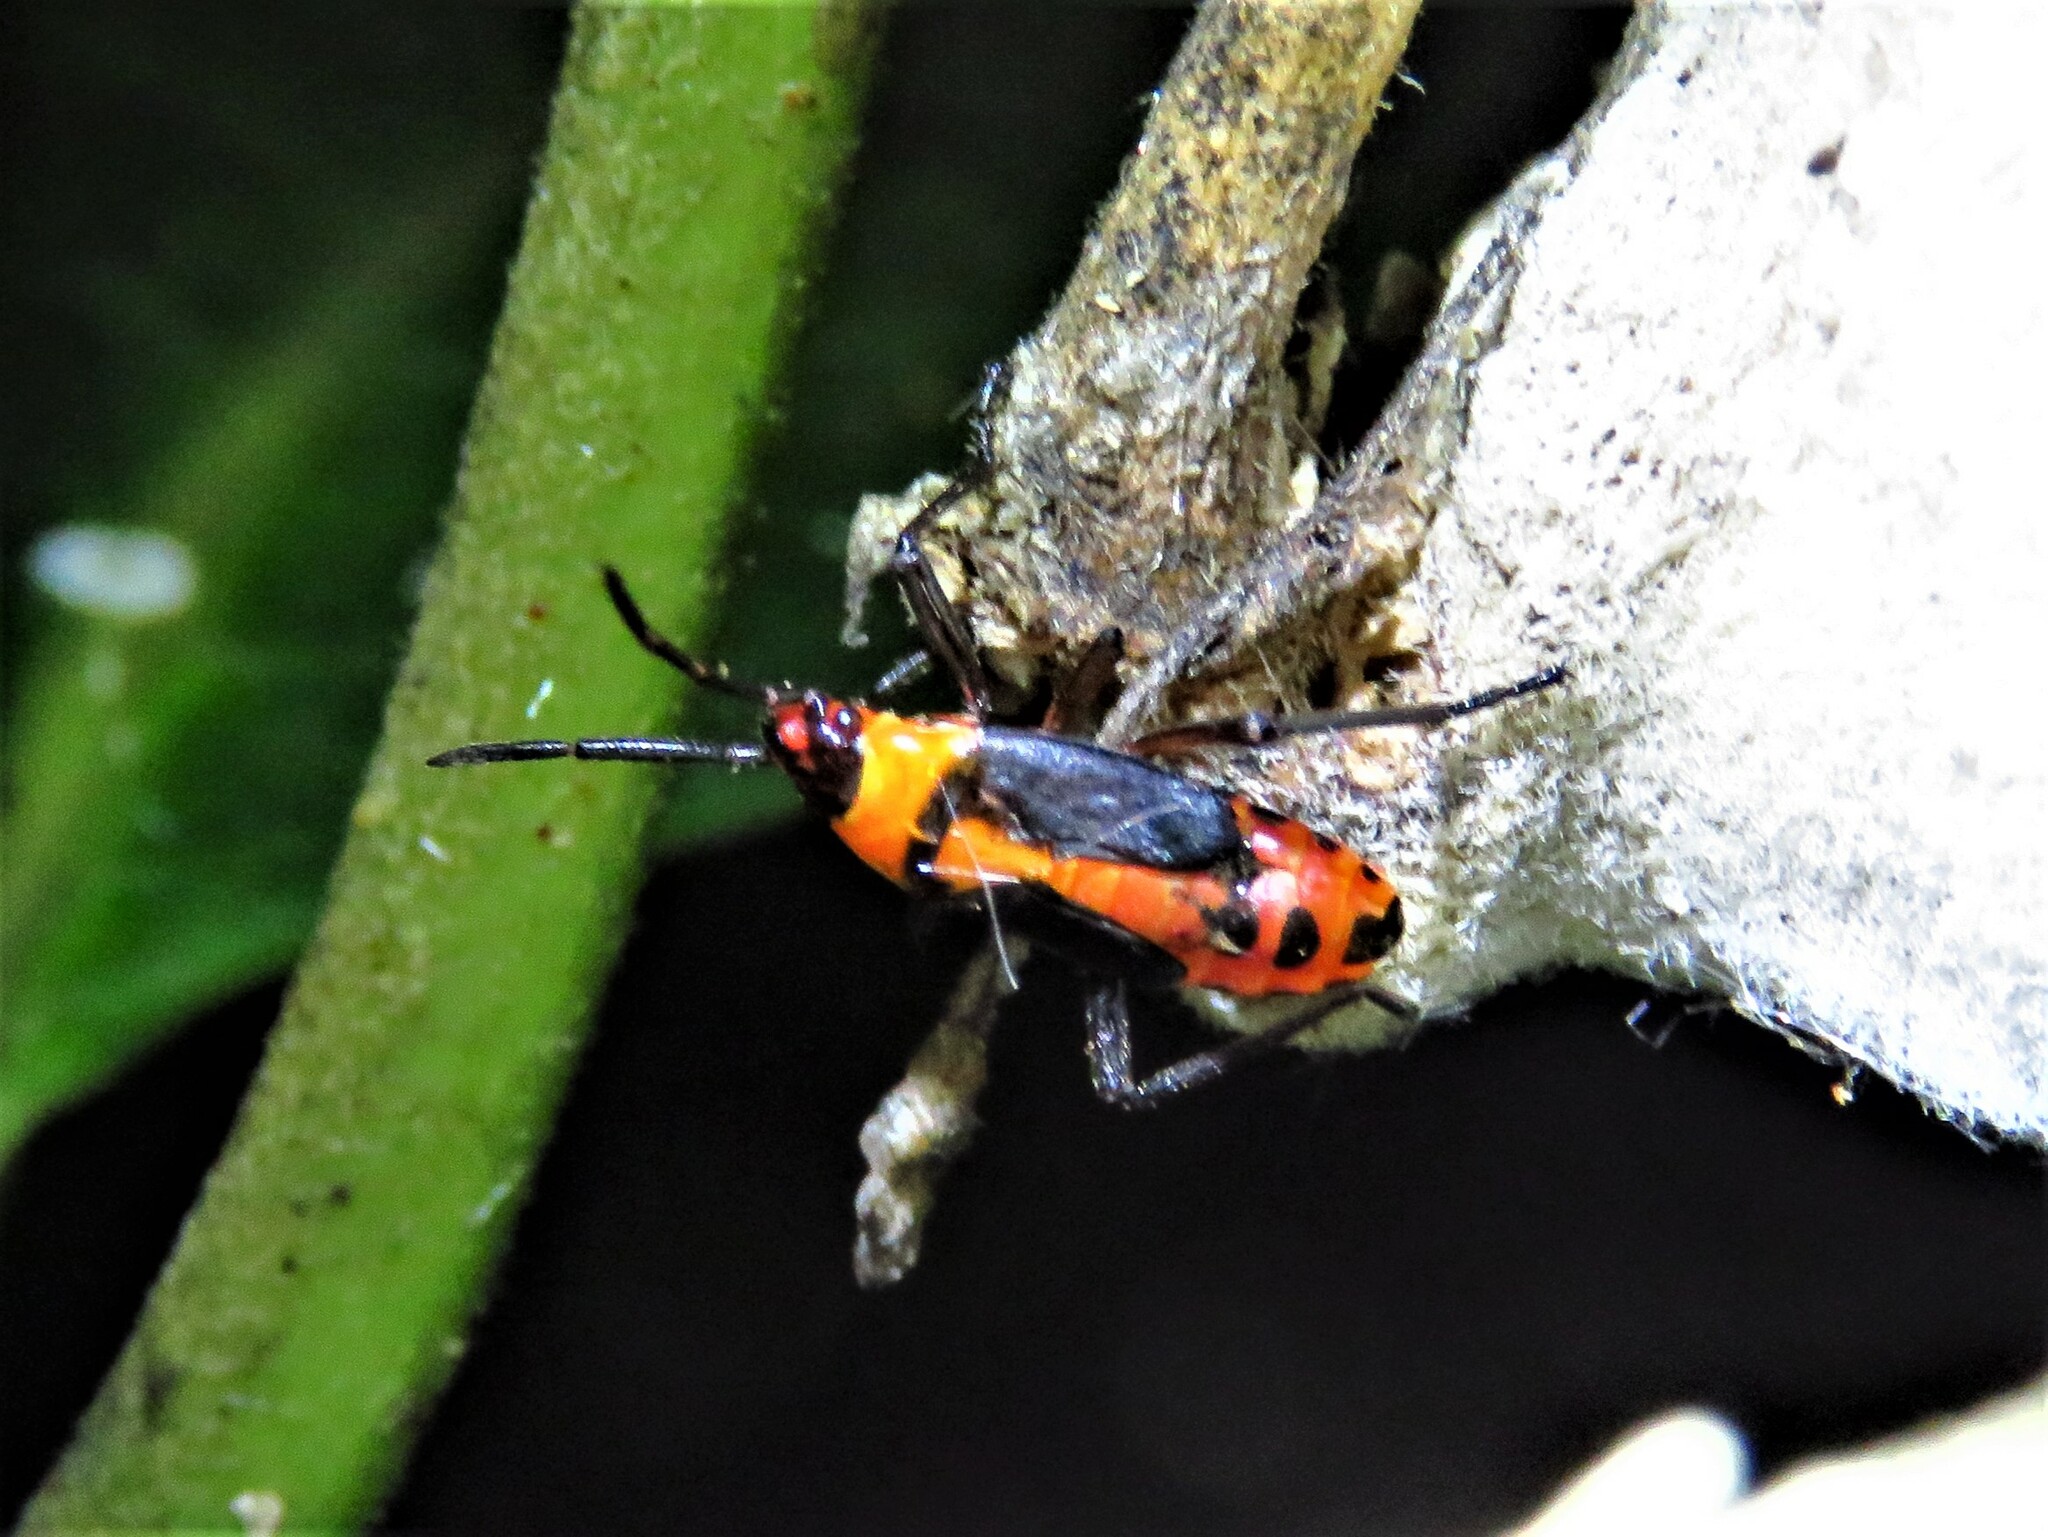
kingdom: Animalia
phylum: Arthropoda
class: Insecta
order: Hemiptera
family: Lygaeidae
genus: Oncopeltus
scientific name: Oncopeltus fasciatus
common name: Large milkweed bug
